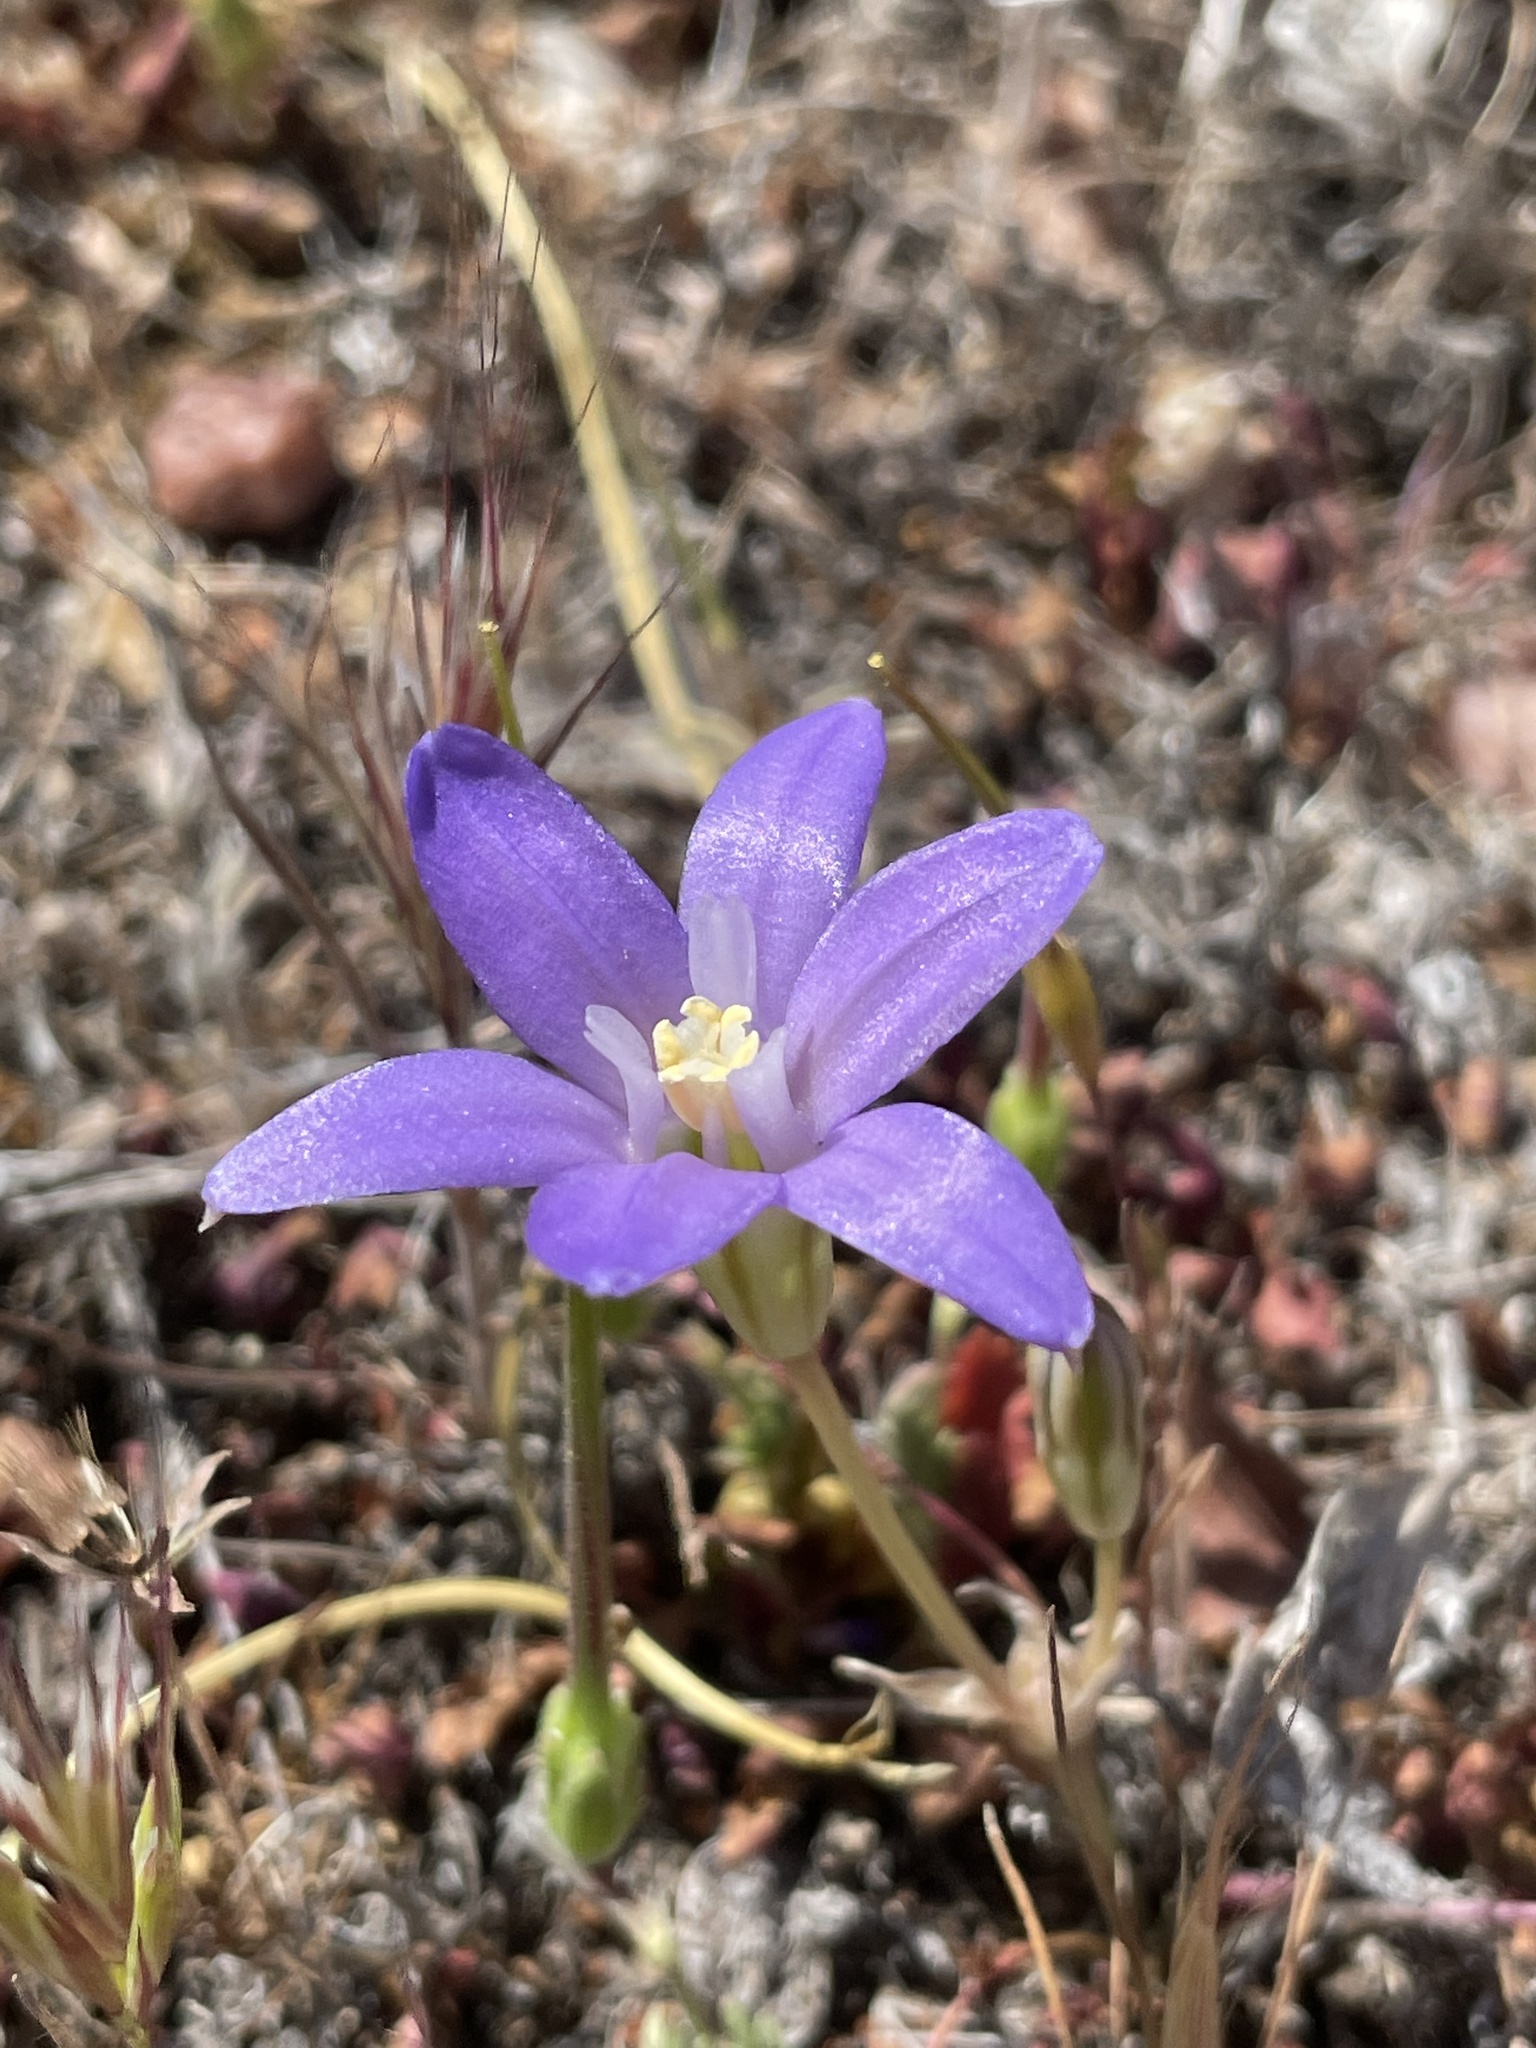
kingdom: Plantae
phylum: Tracheophyta
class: Liliopsida
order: Asparagales
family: Asparagaceae
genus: Brodiaea
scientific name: Brodiaea terrestris
